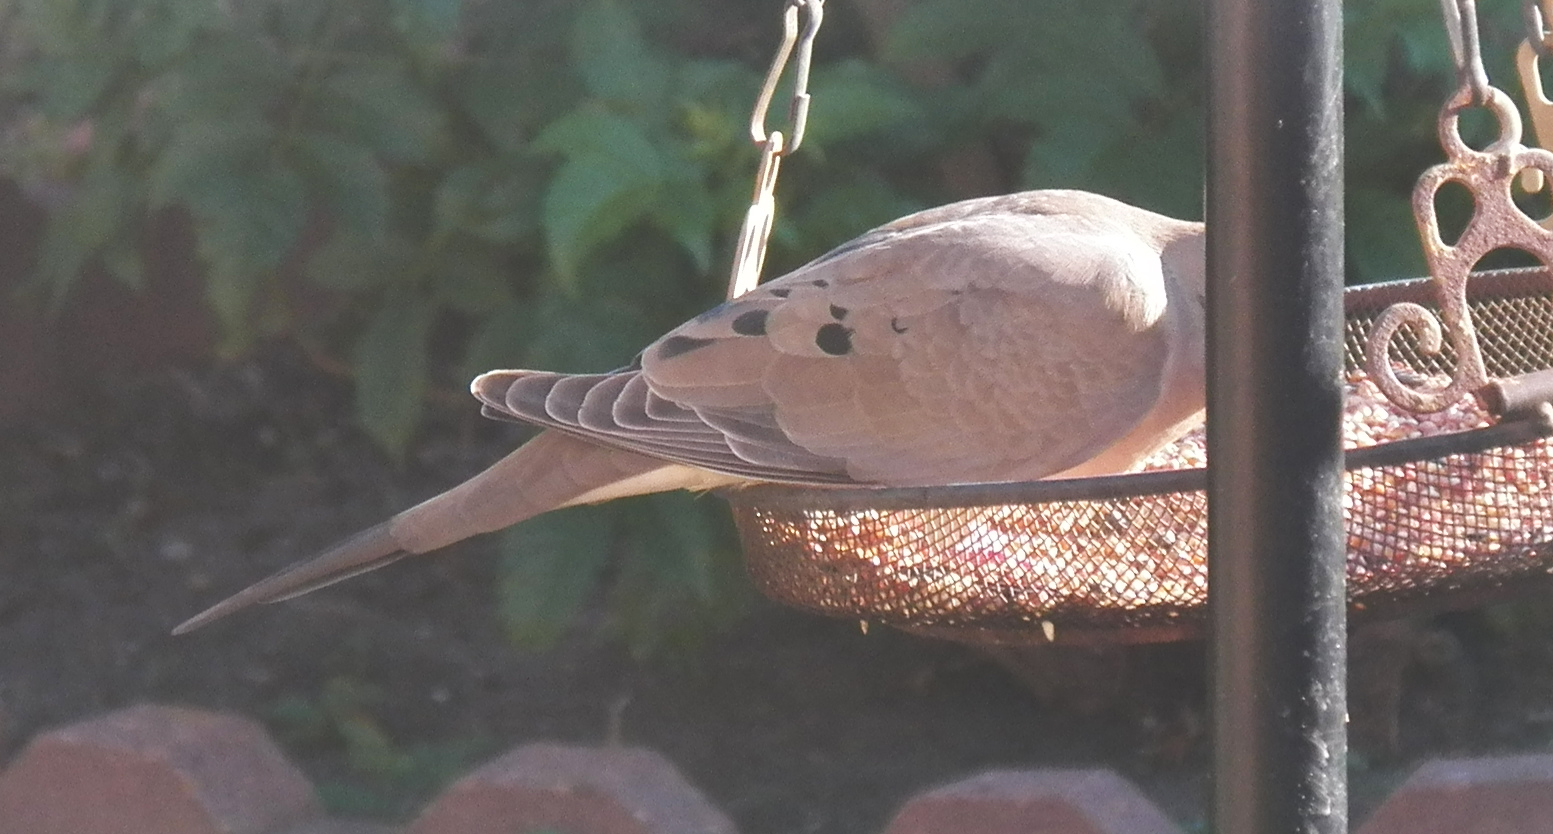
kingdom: Animalia
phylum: Chordata
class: Aves
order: Columbiformes
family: Columbidae
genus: Zenaida
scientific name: Zenaida macroura
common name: Mourning dove
